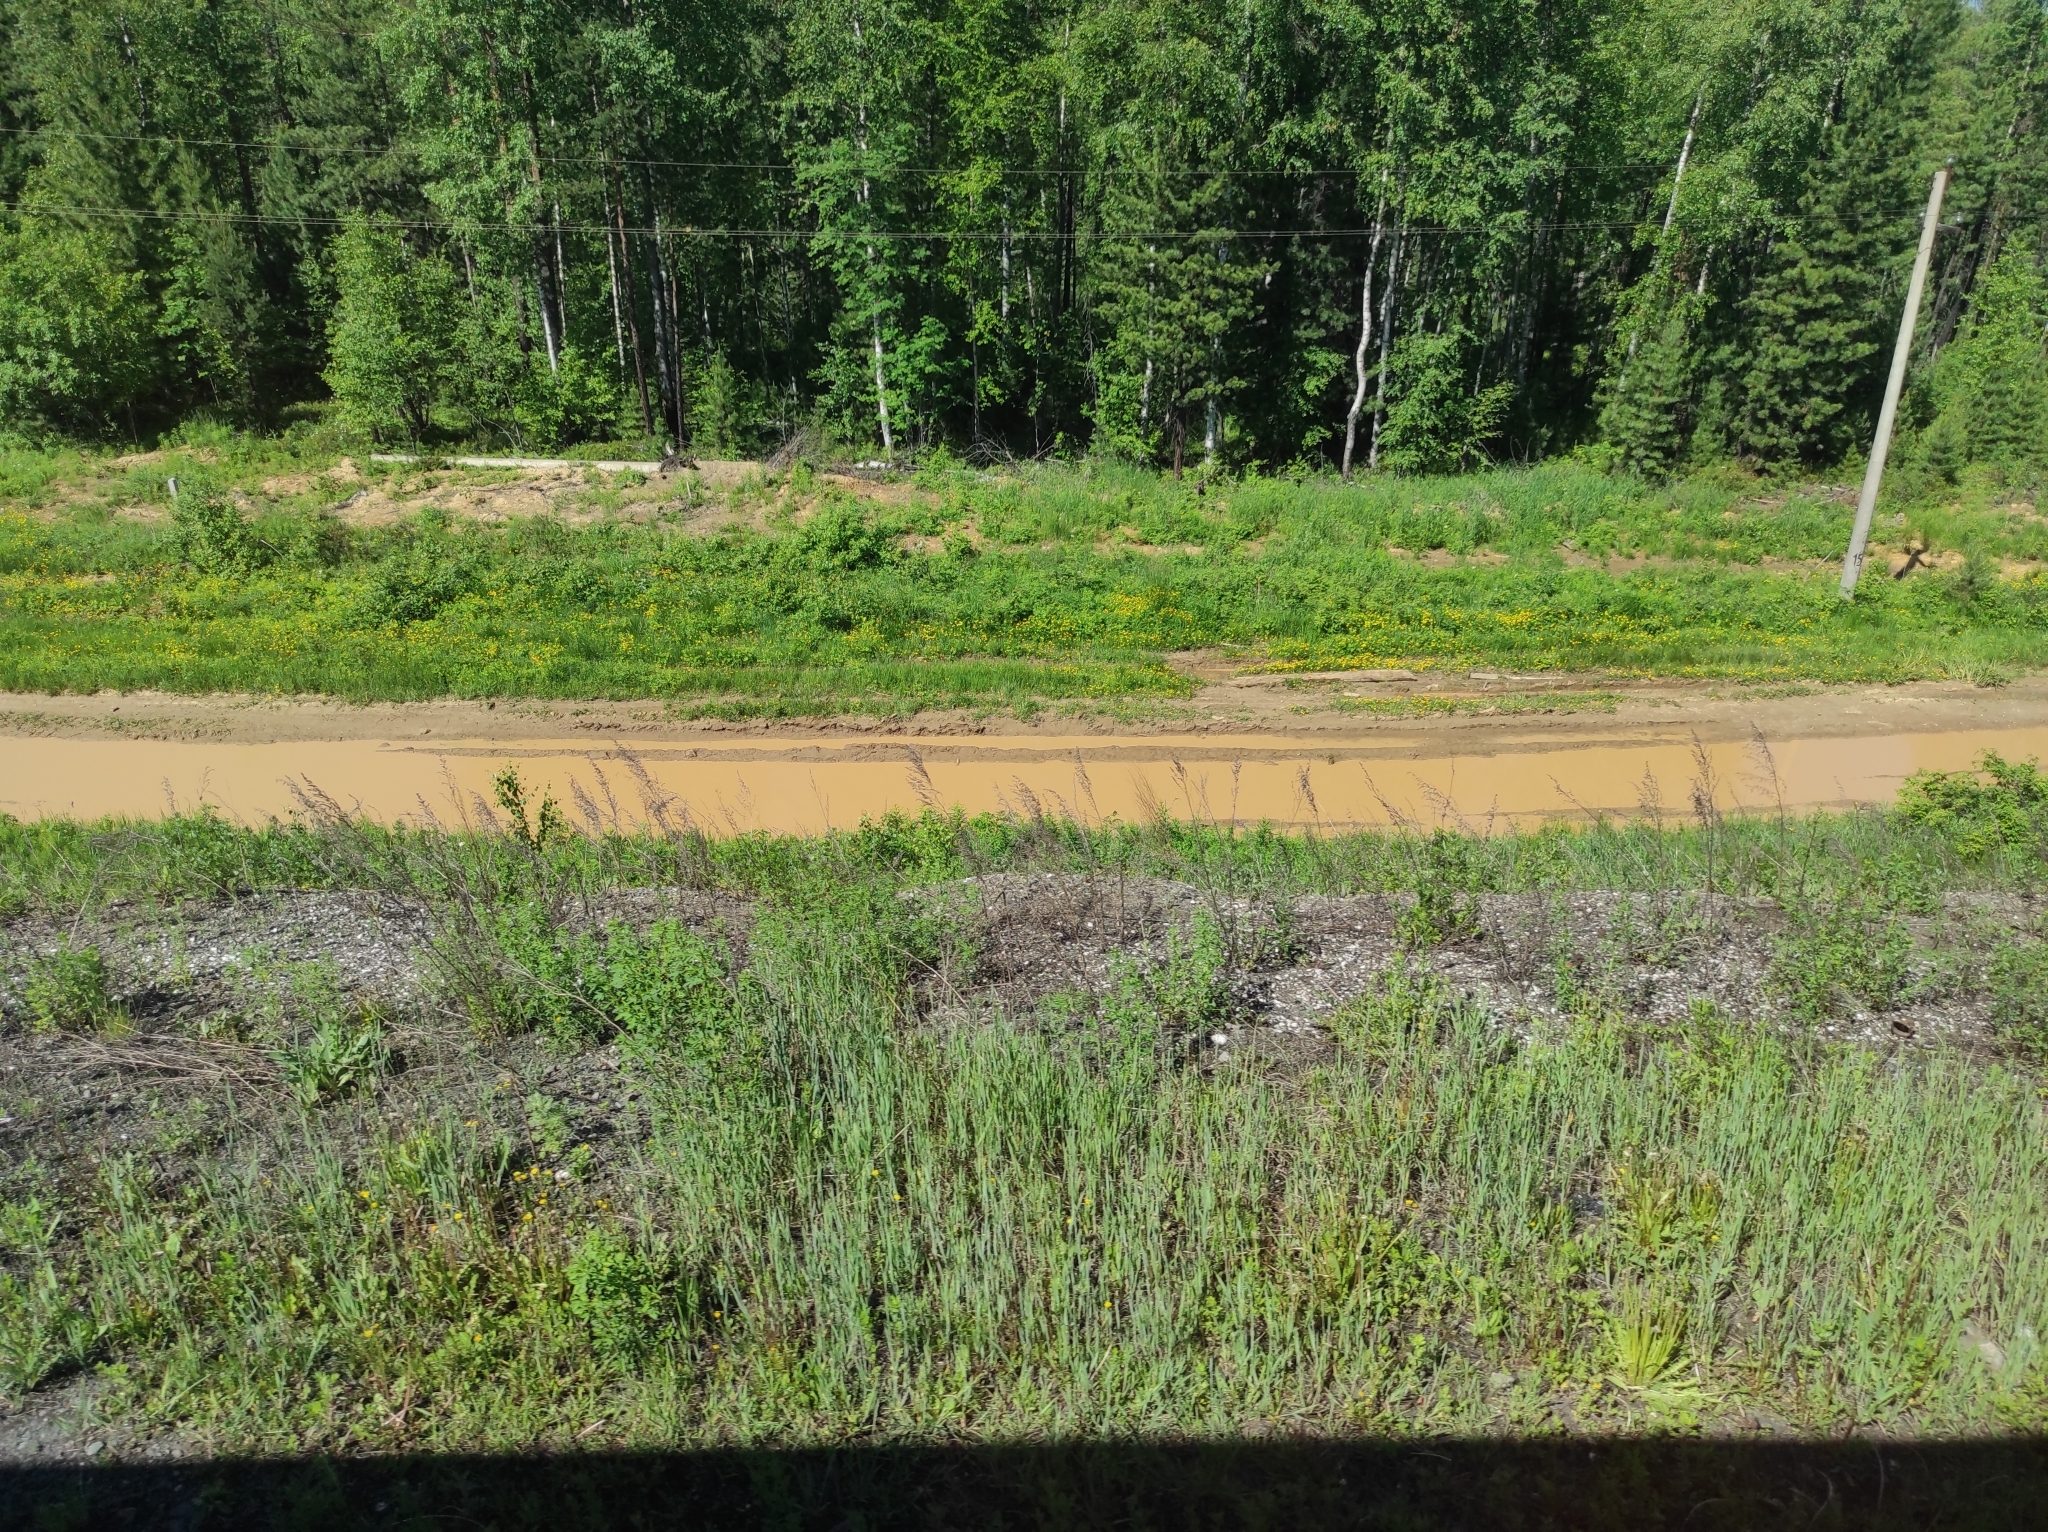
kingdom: Plantae
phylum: Tracheophyta
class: Pinopsida
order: Pinales
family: Pinaceae
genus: Pinus
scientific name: Pinus sibirica
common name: Siberian pine
